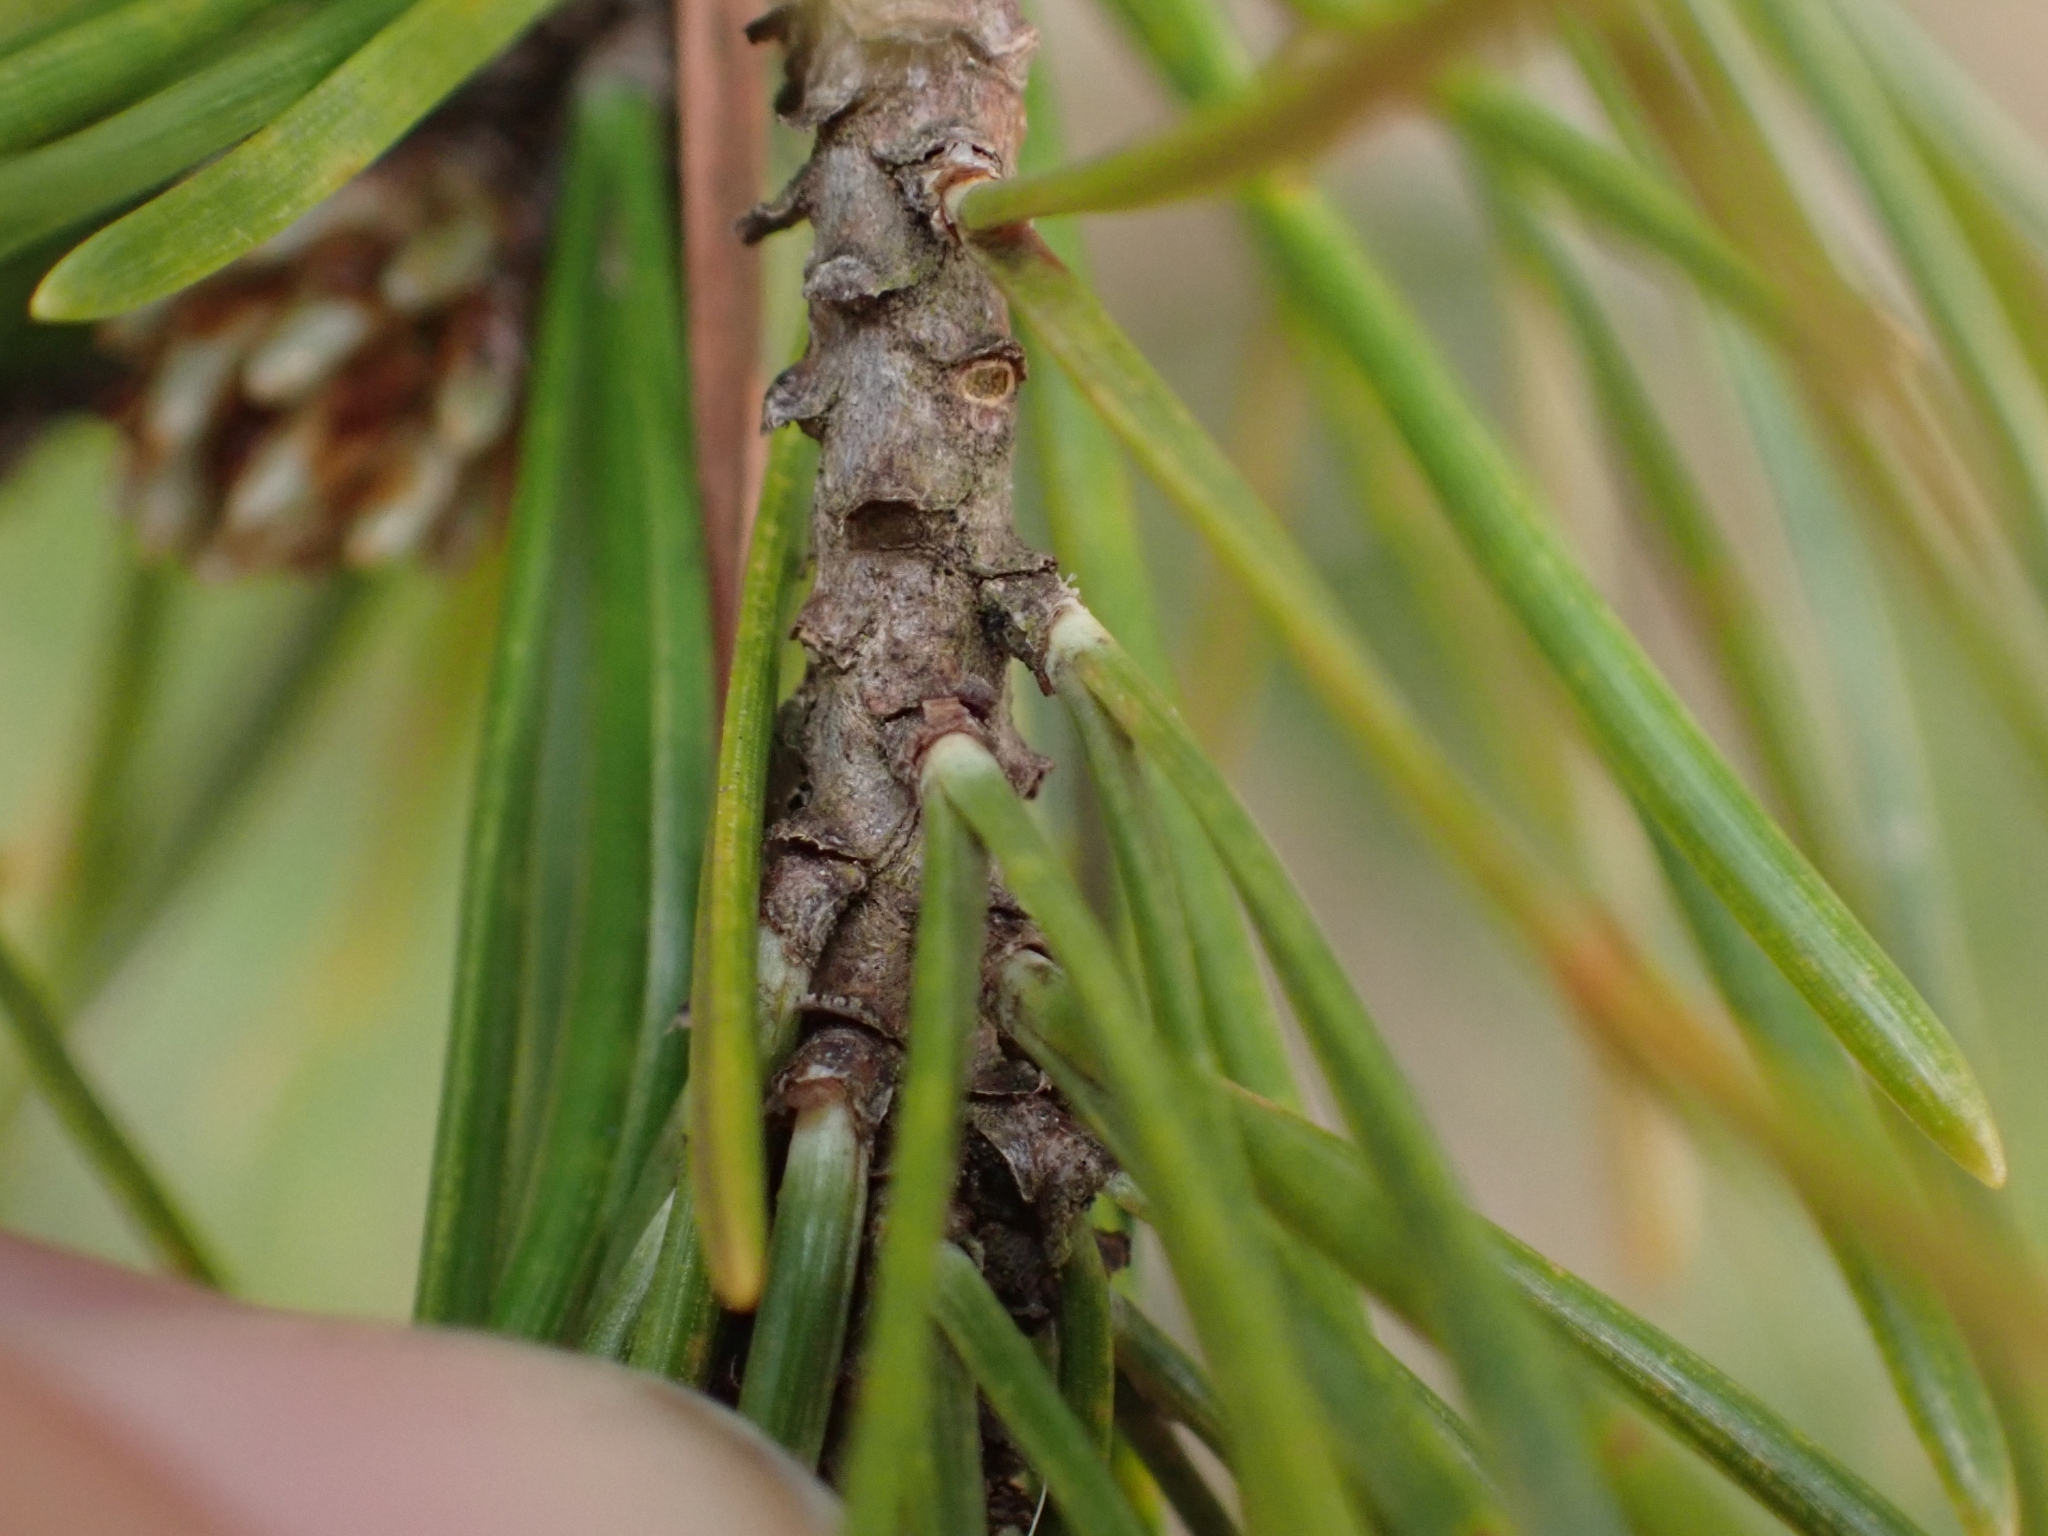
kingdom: Plantae
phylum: Tracheophyta
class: Pinopsida
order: Pinales
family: Pinaceae
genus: Pinus
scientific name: Pinus contorta
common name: Lodgepole pine
